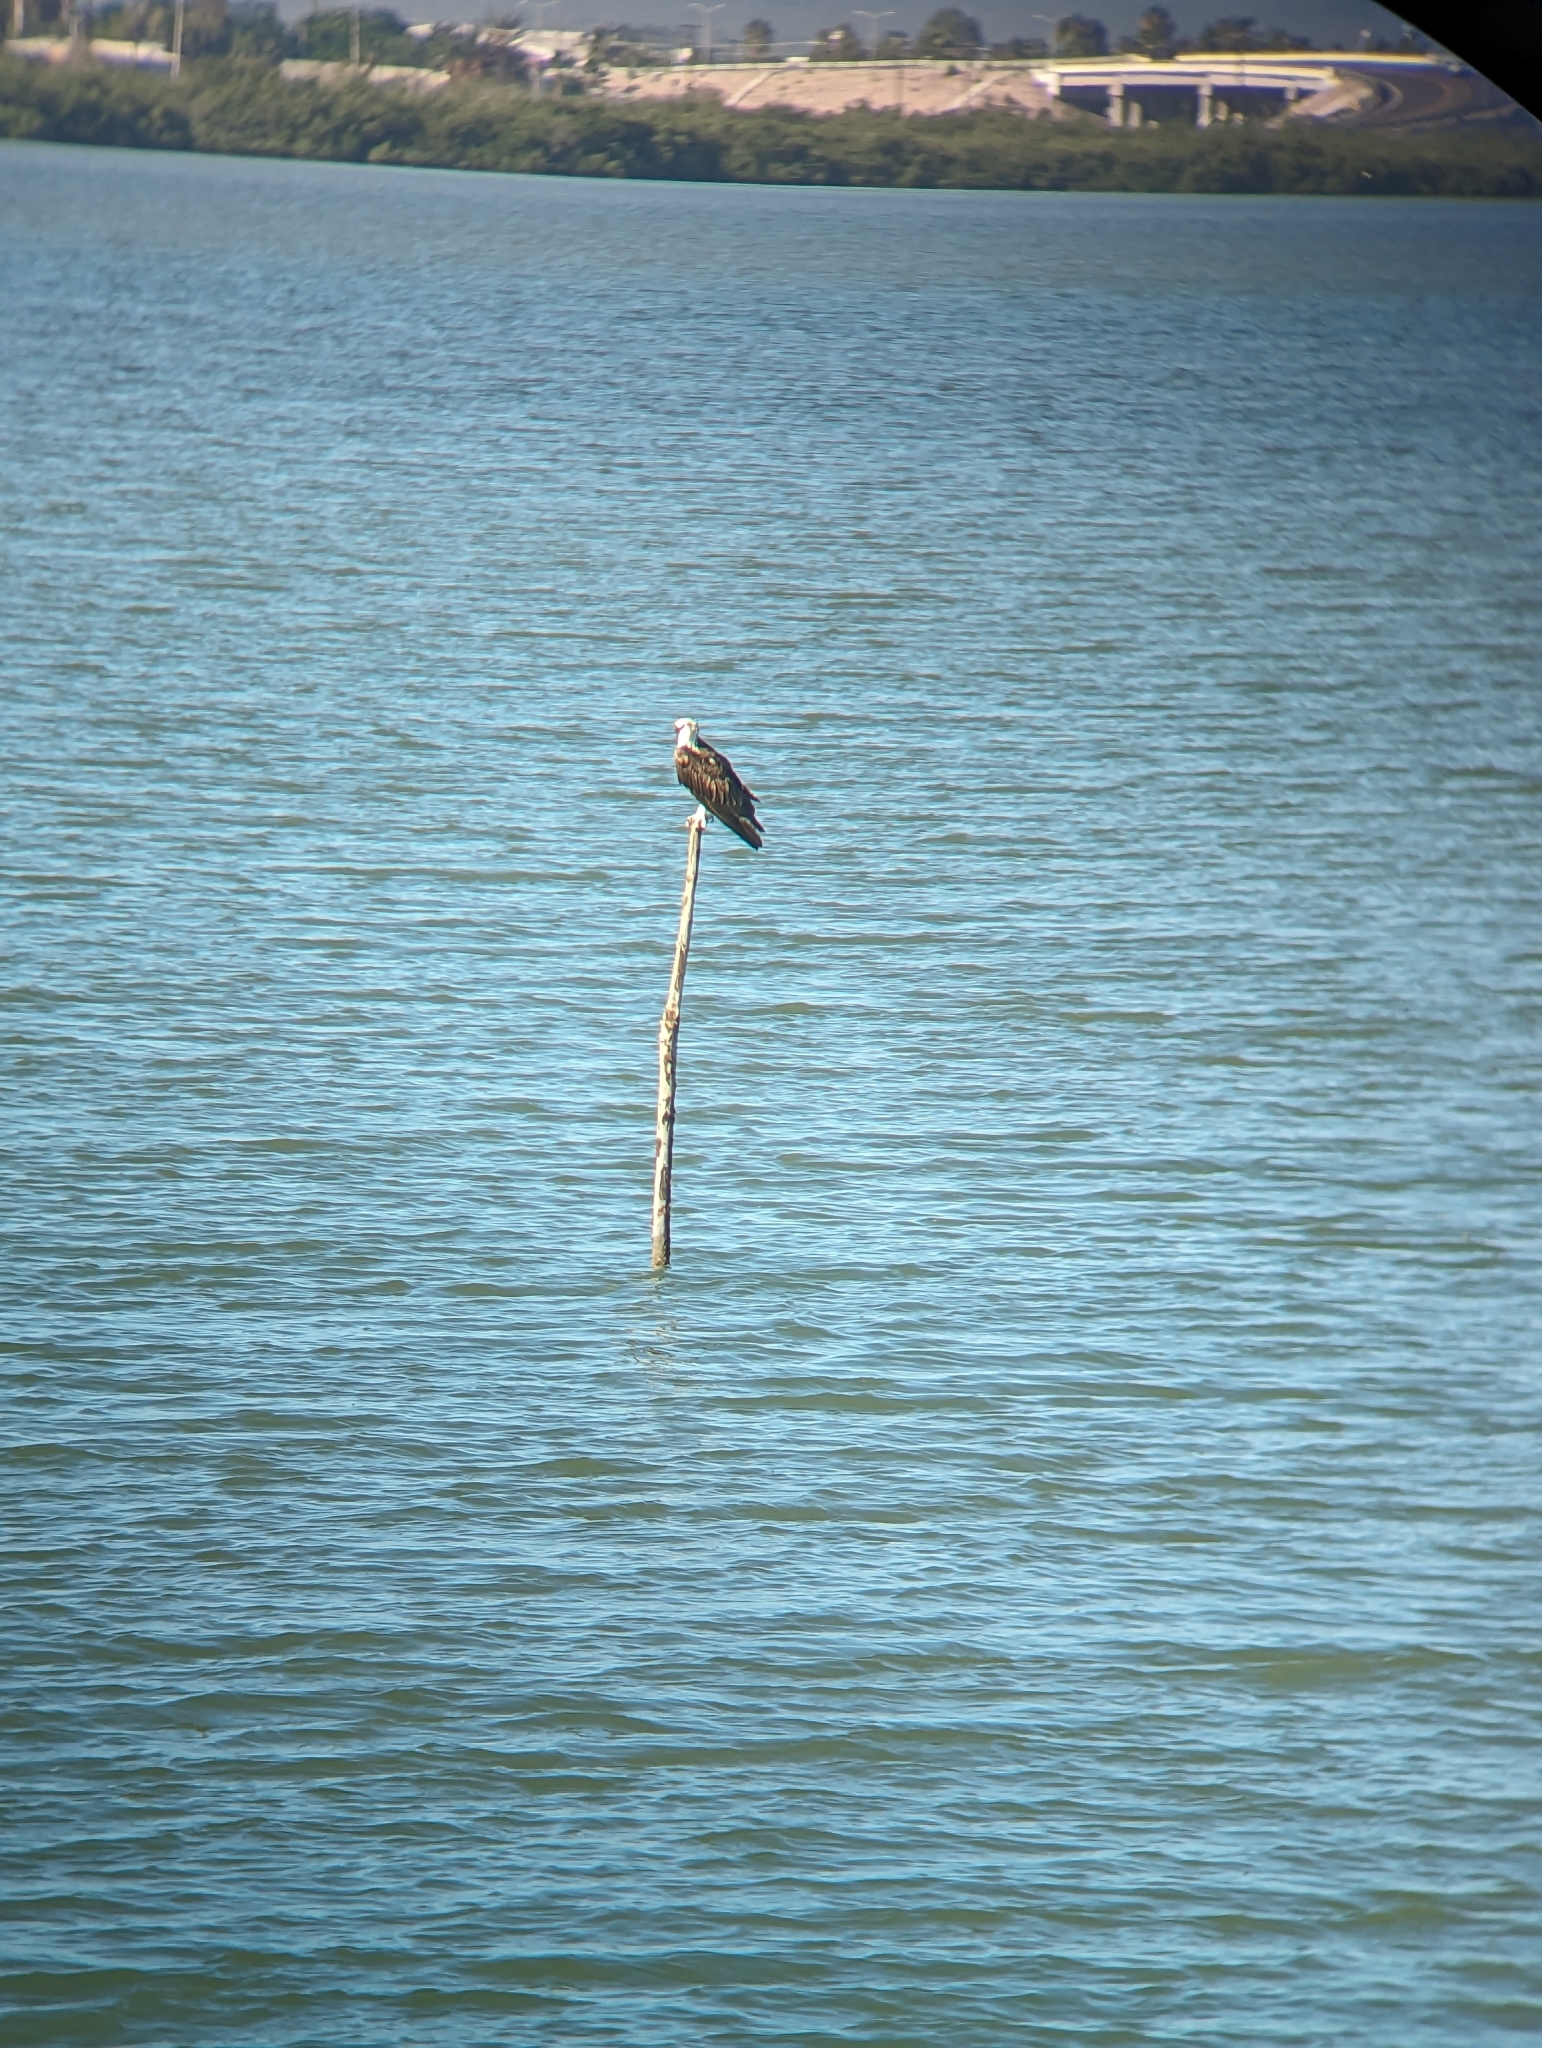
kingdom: Animalia
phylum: Chordata
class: Aves
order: Accipitriformes
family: Pandionidae
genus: Pandion
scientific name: Pandion haliaetus
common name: Osprey
